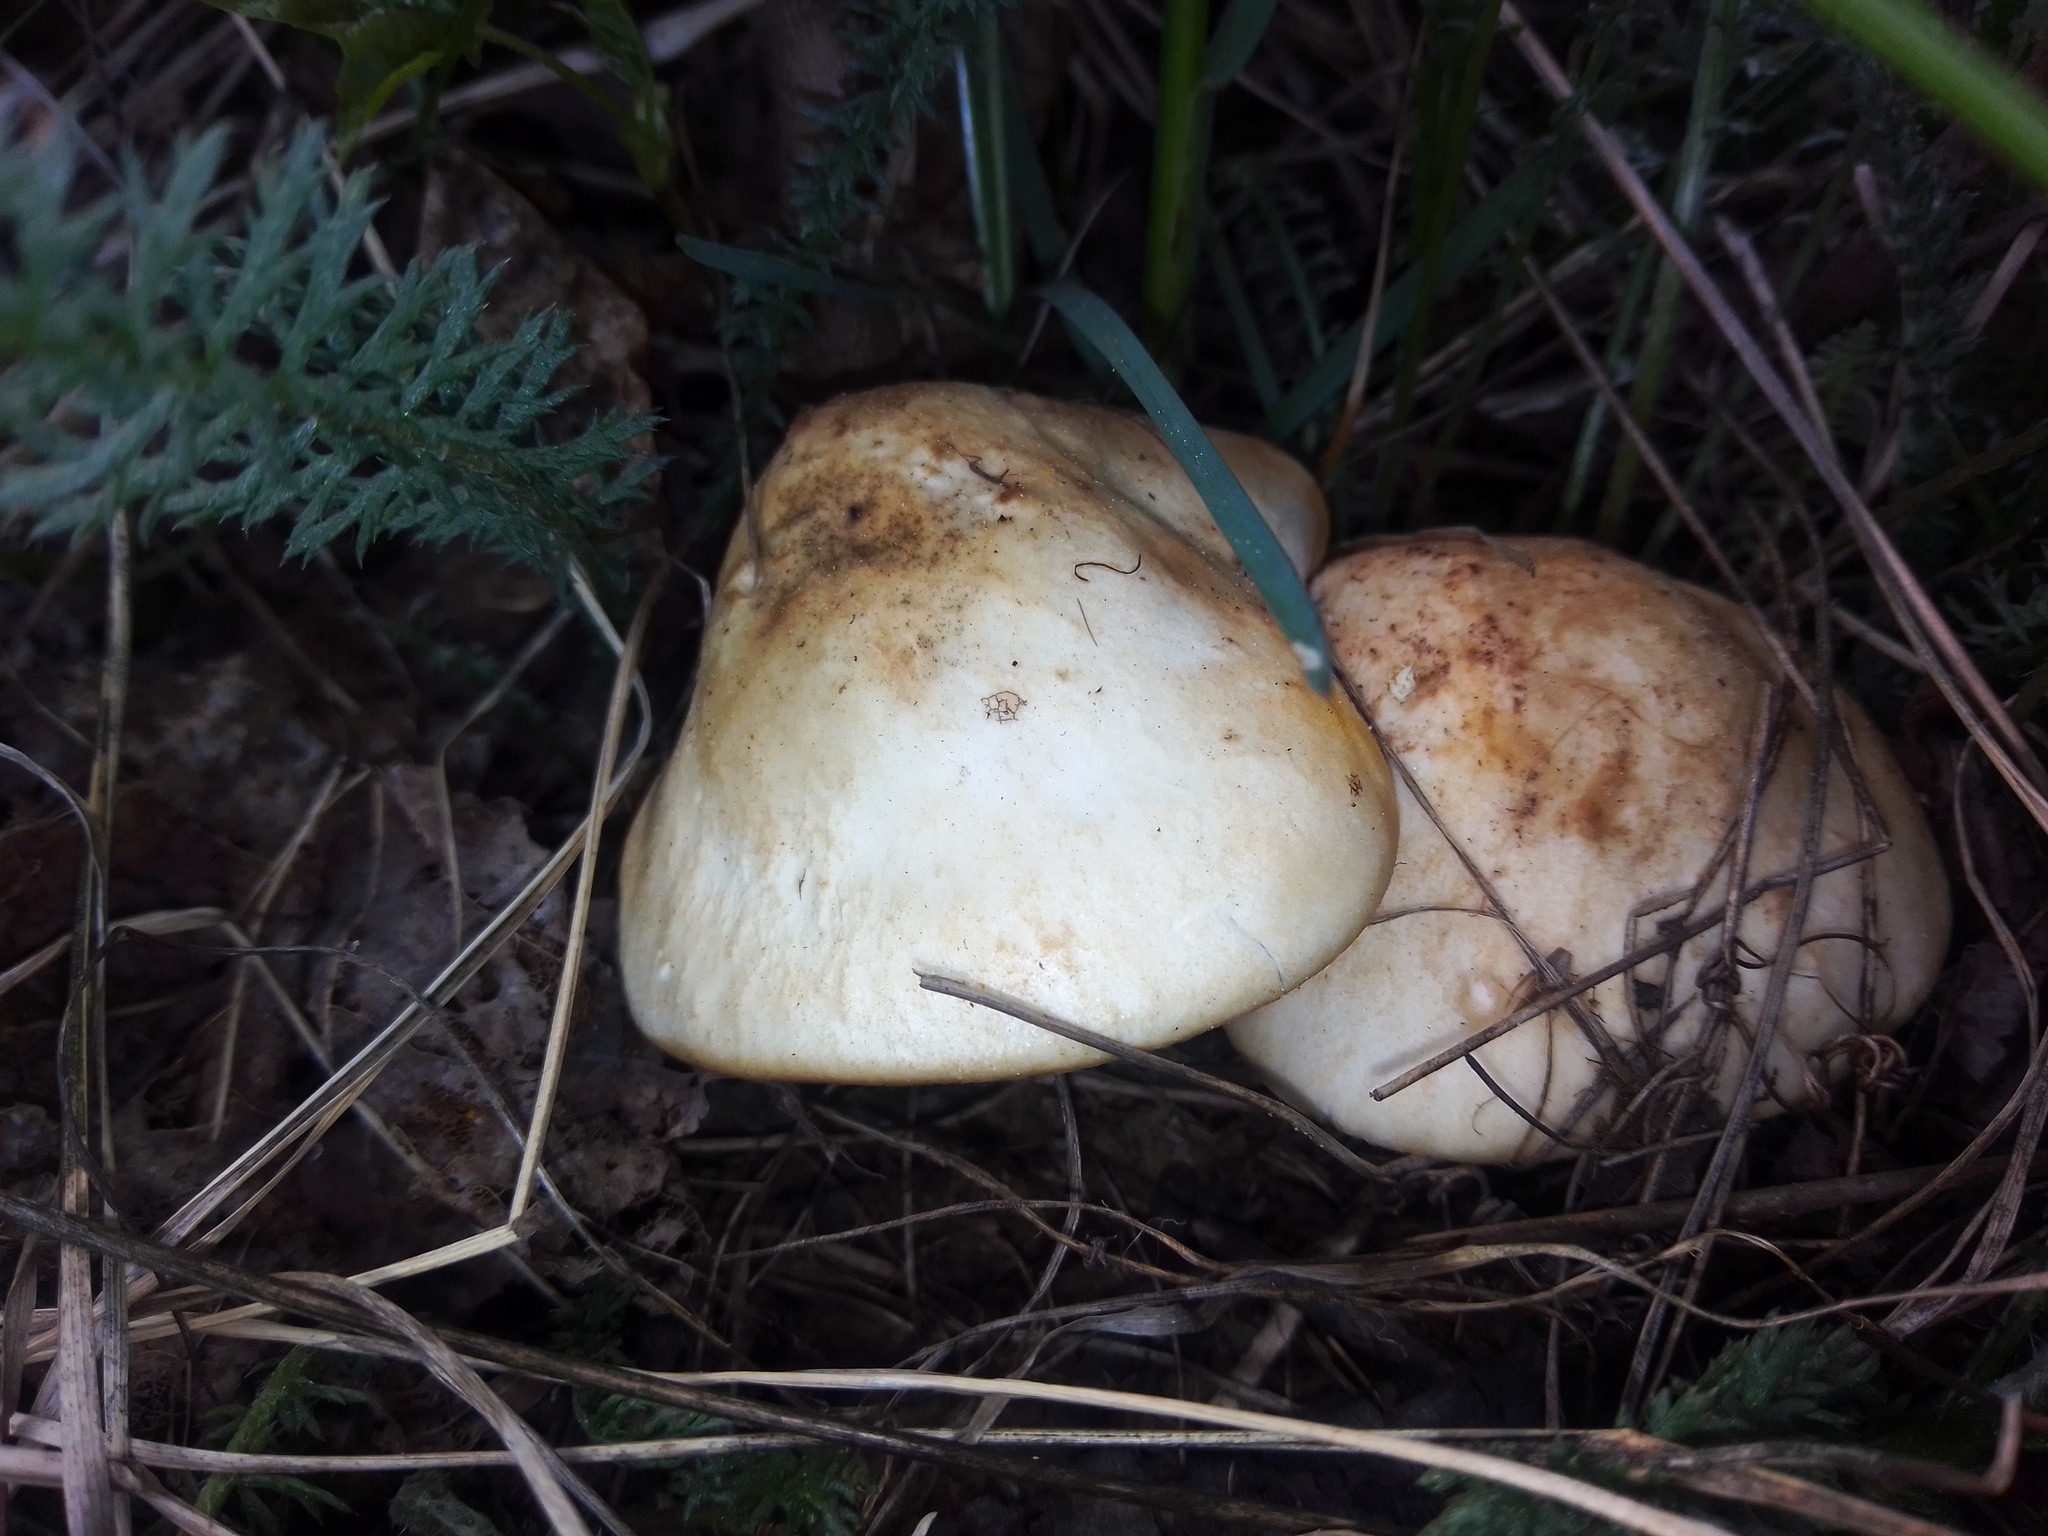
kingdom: Fungi
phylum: Basidiomycota
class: Agaricomycetes
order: Agaricales
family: Lyophyllaceae
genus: Calocybe
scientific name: Calocybe gambosa
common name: St. george's mushroom
